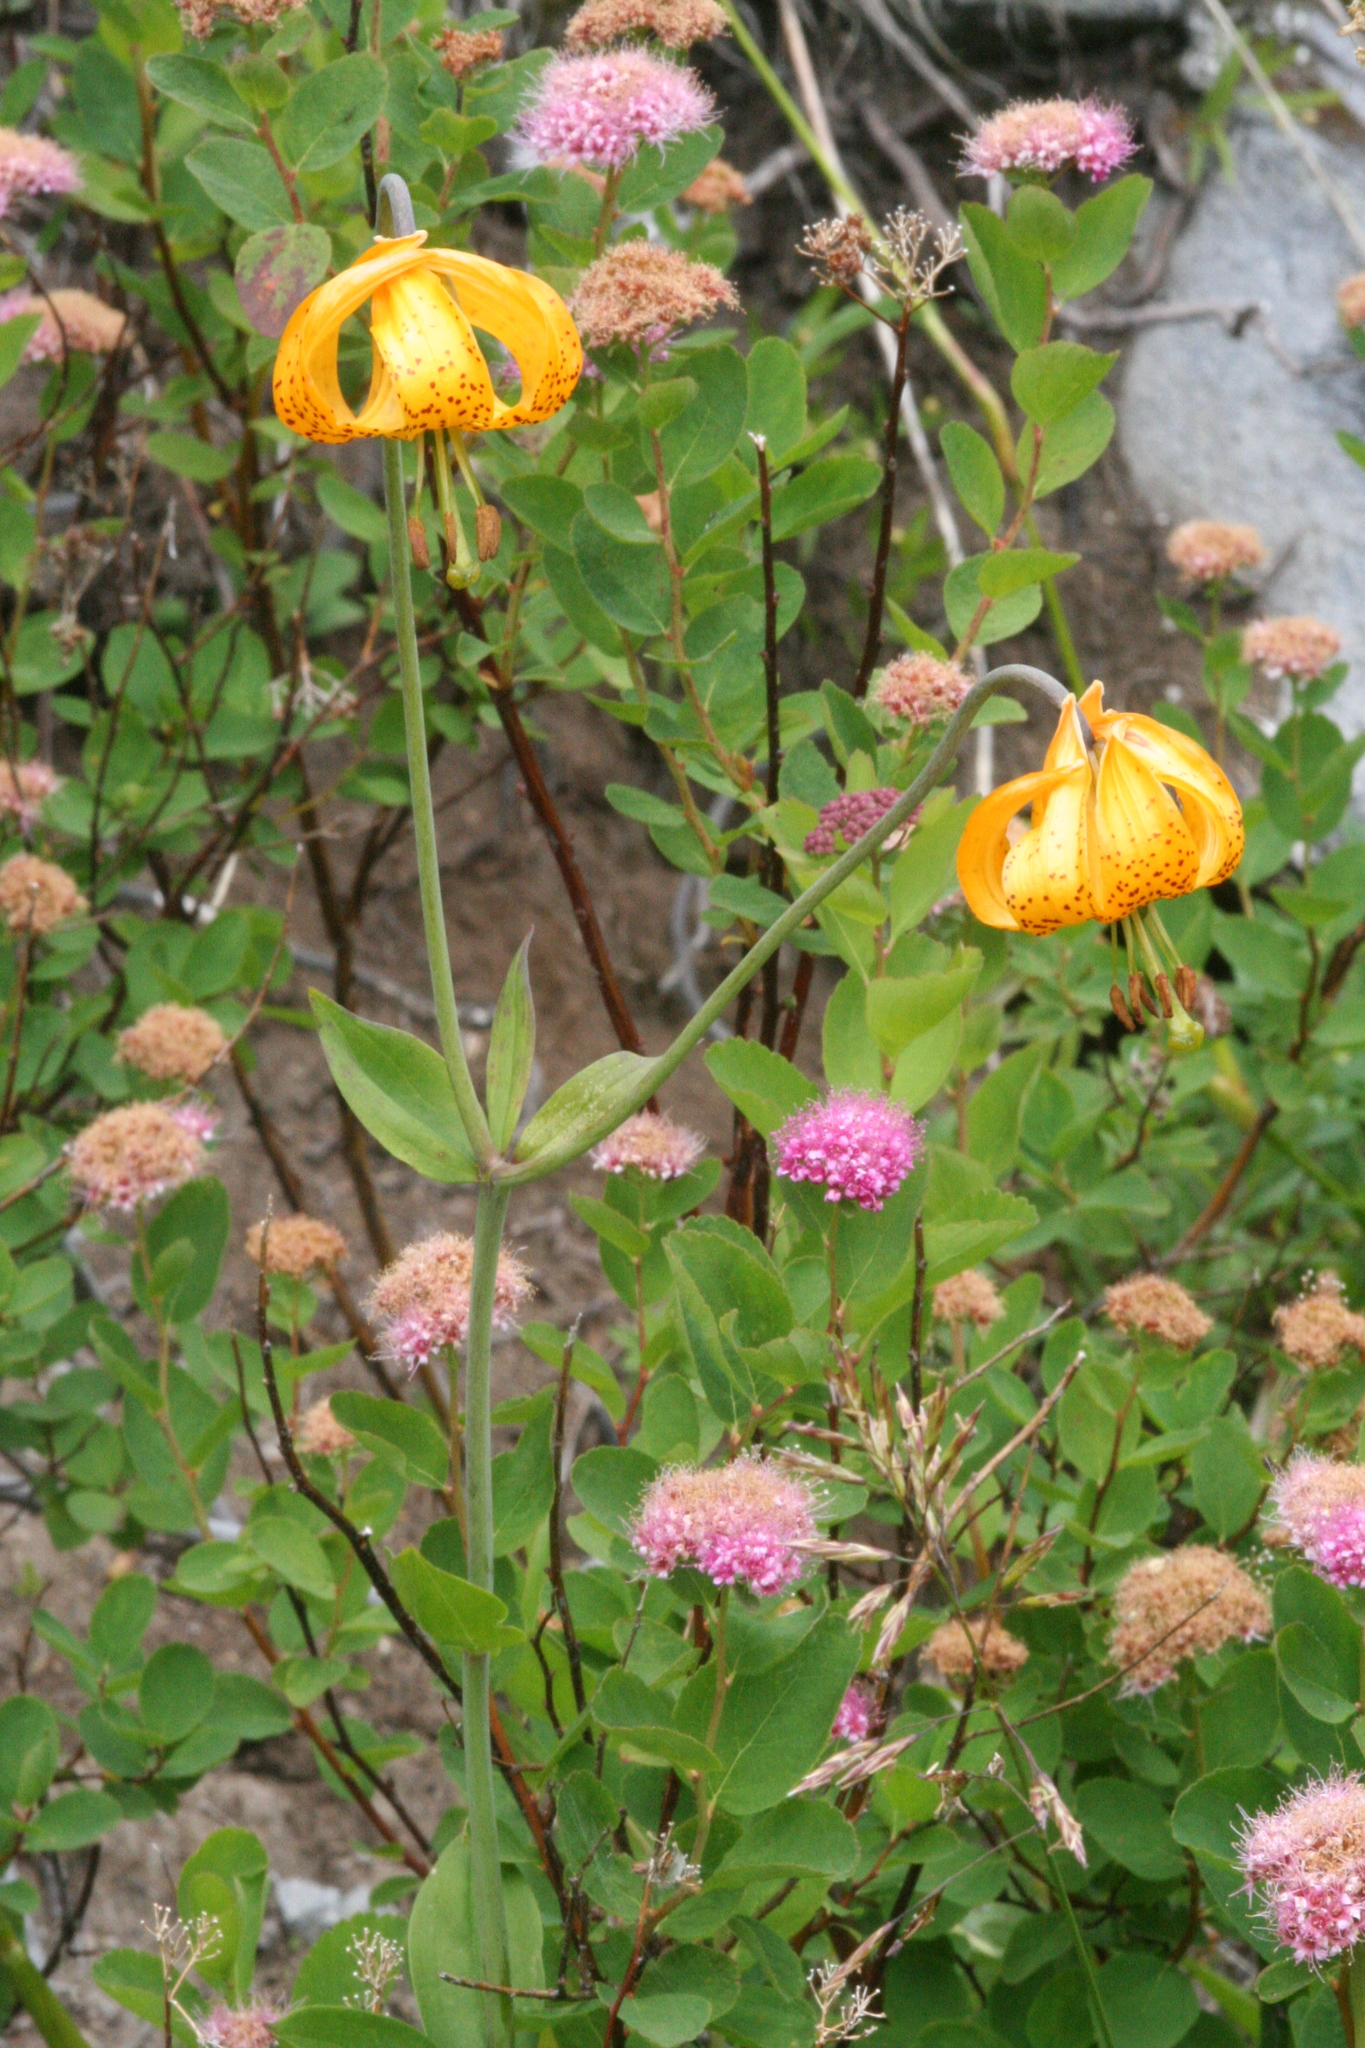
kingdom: Plantae
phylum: Tracheophyta
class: Liliopsida
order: Liliales
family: Liliaceae
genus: Lilium
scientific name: Lilium columbianum
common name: Columbia lily
